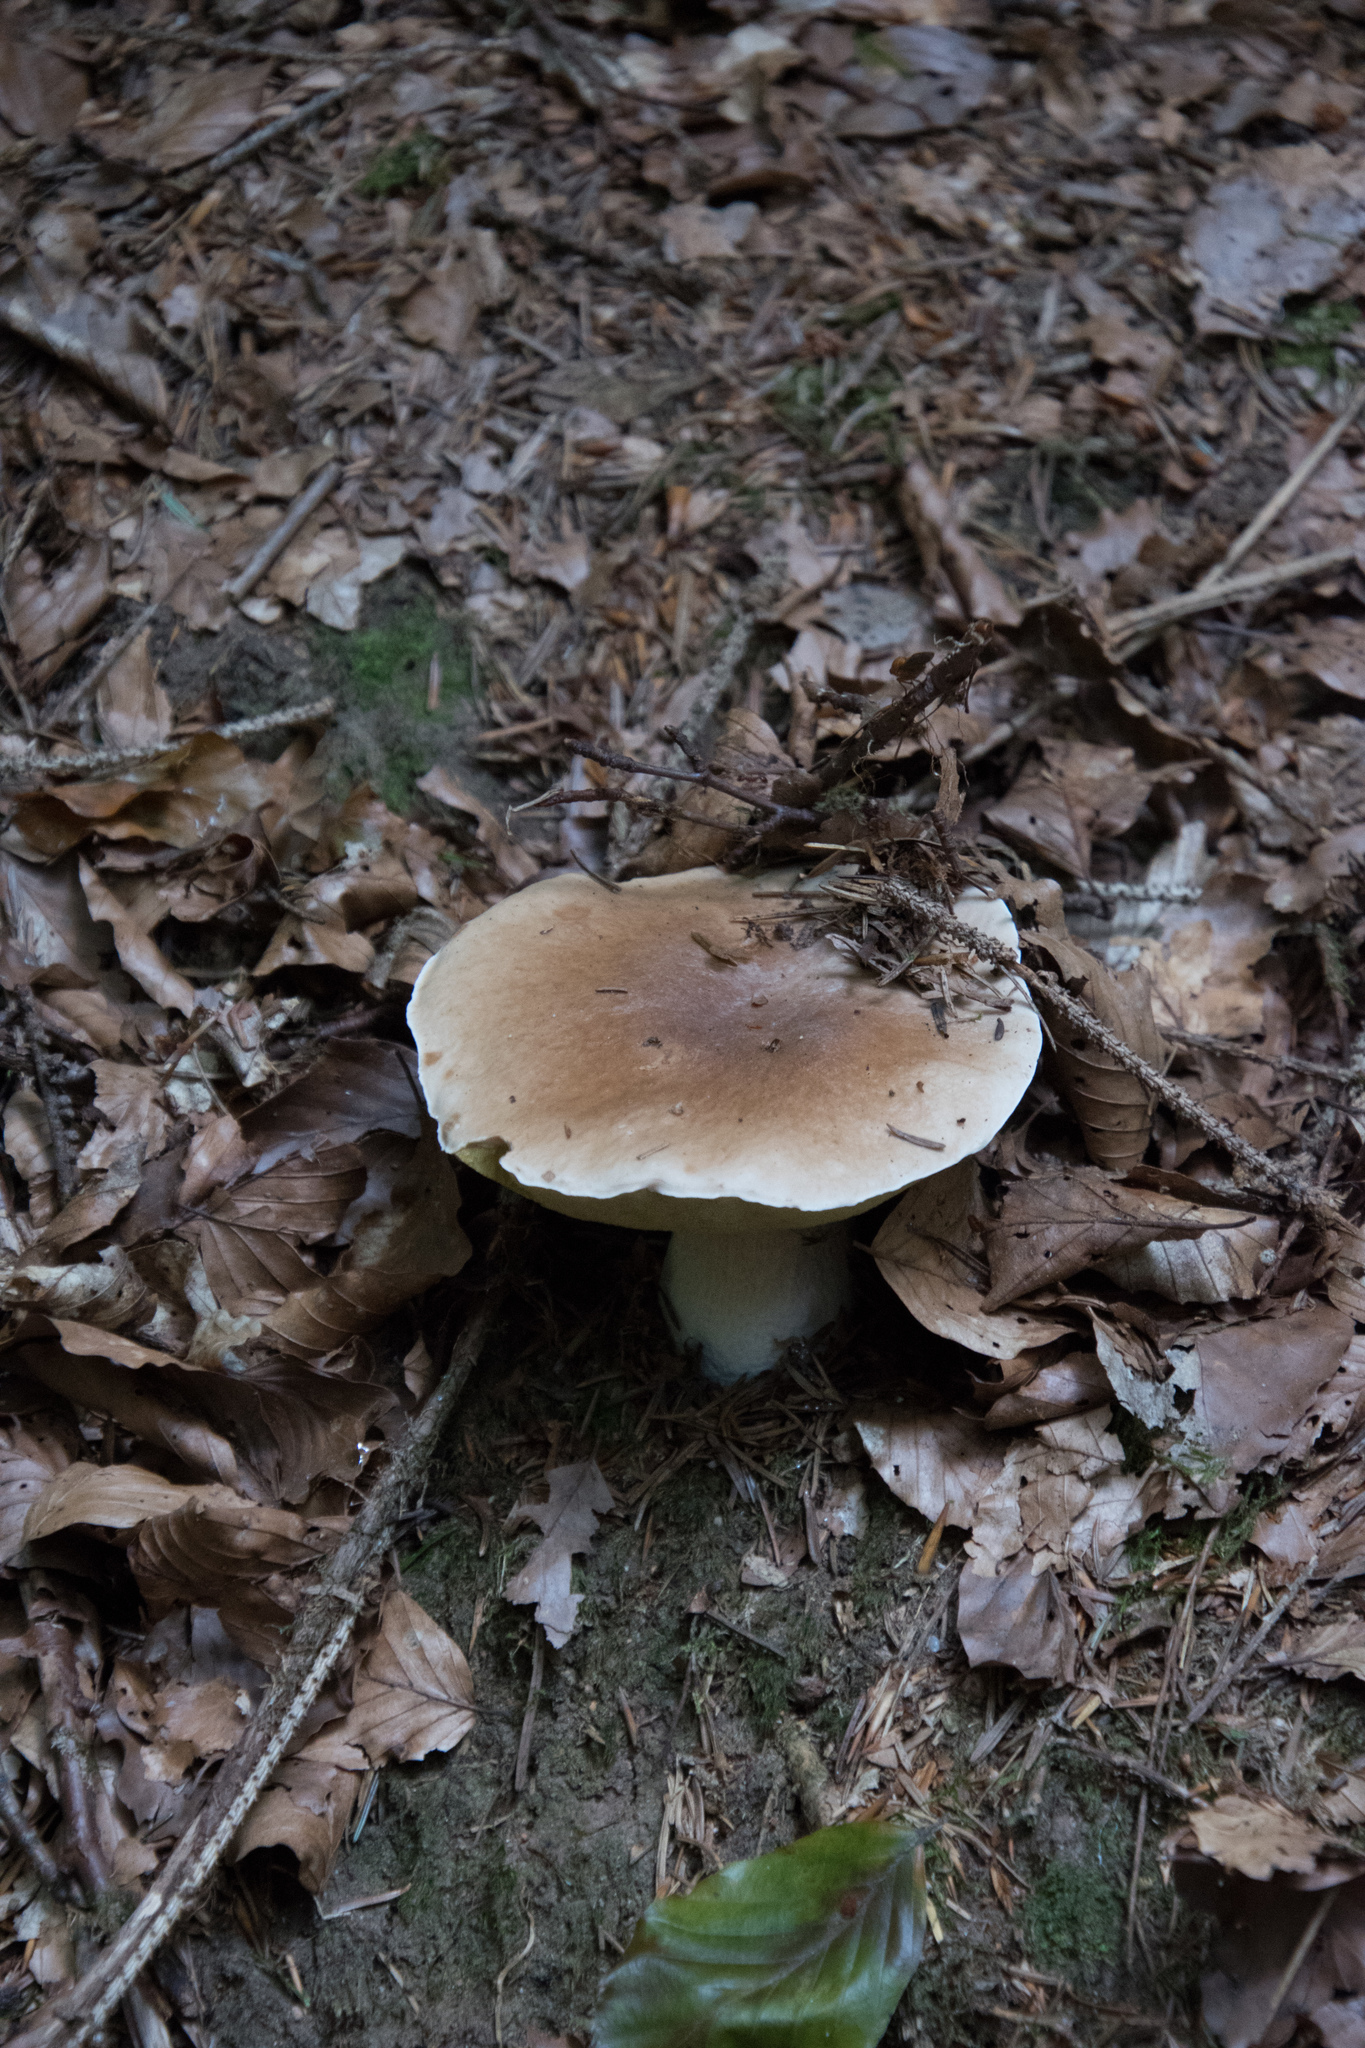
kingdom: Fungi
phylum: Basidiomycota
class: Agaricomycetes
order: Boletales
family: Boletaceae
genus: Boletus
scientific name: Boletus edulis
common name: Cep
